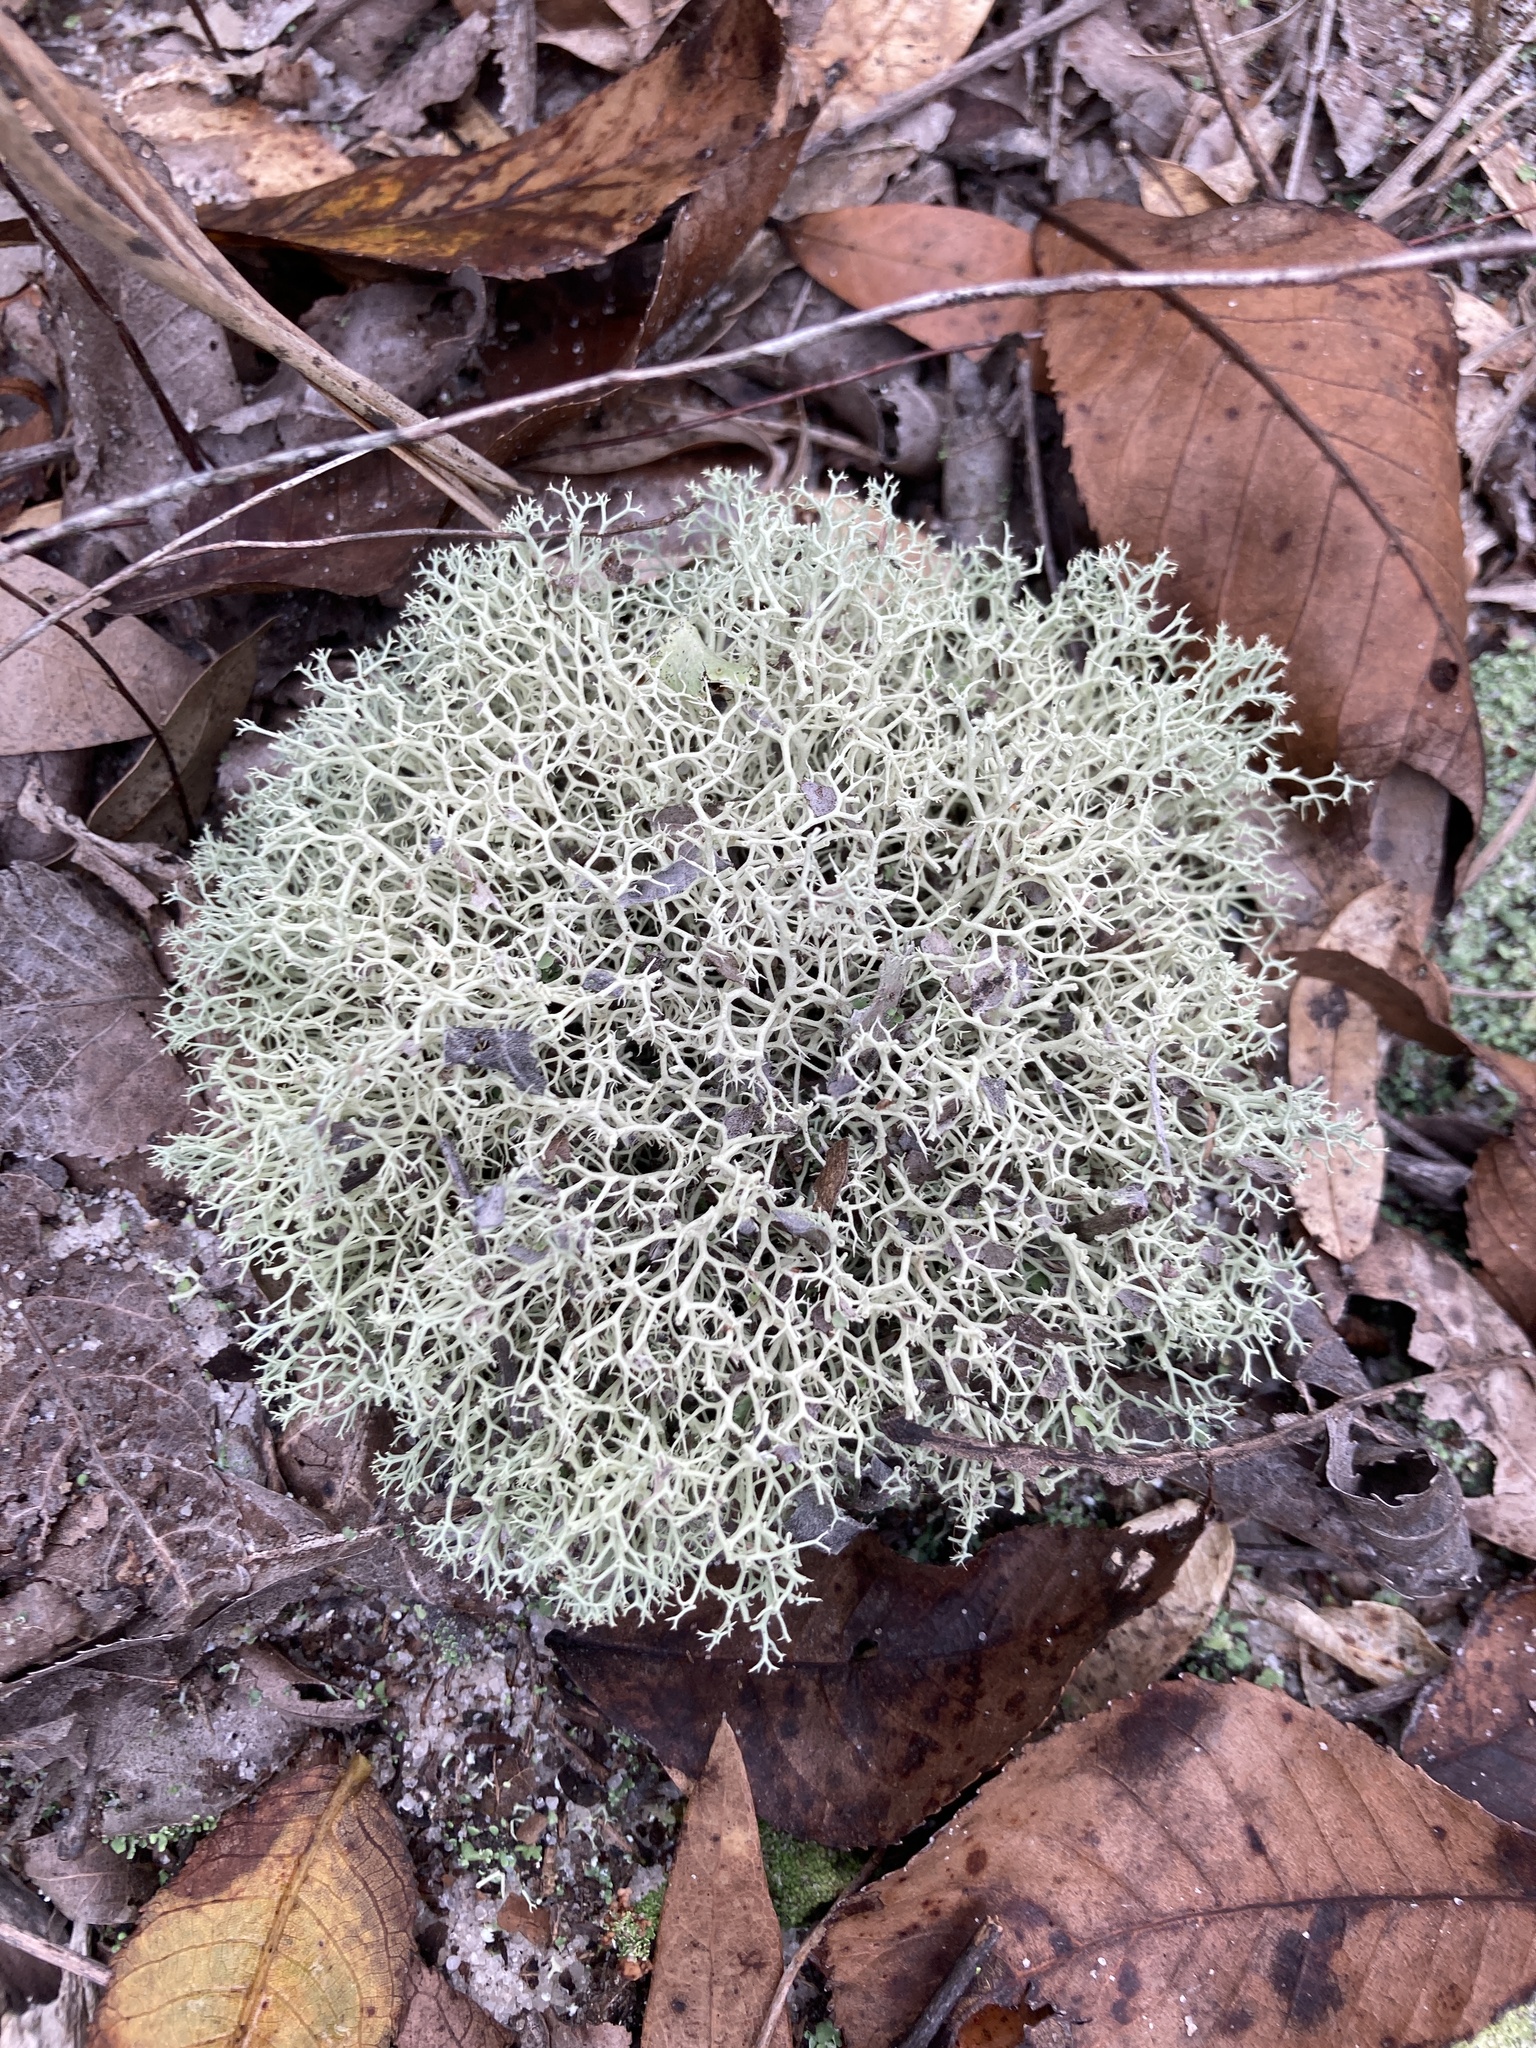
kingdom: Fungi
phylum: Ascomycota
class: Lecanoromycetes
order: Lecanorales
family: Cladoniaceae
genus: Cladonia
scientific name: Cladonia evansii
